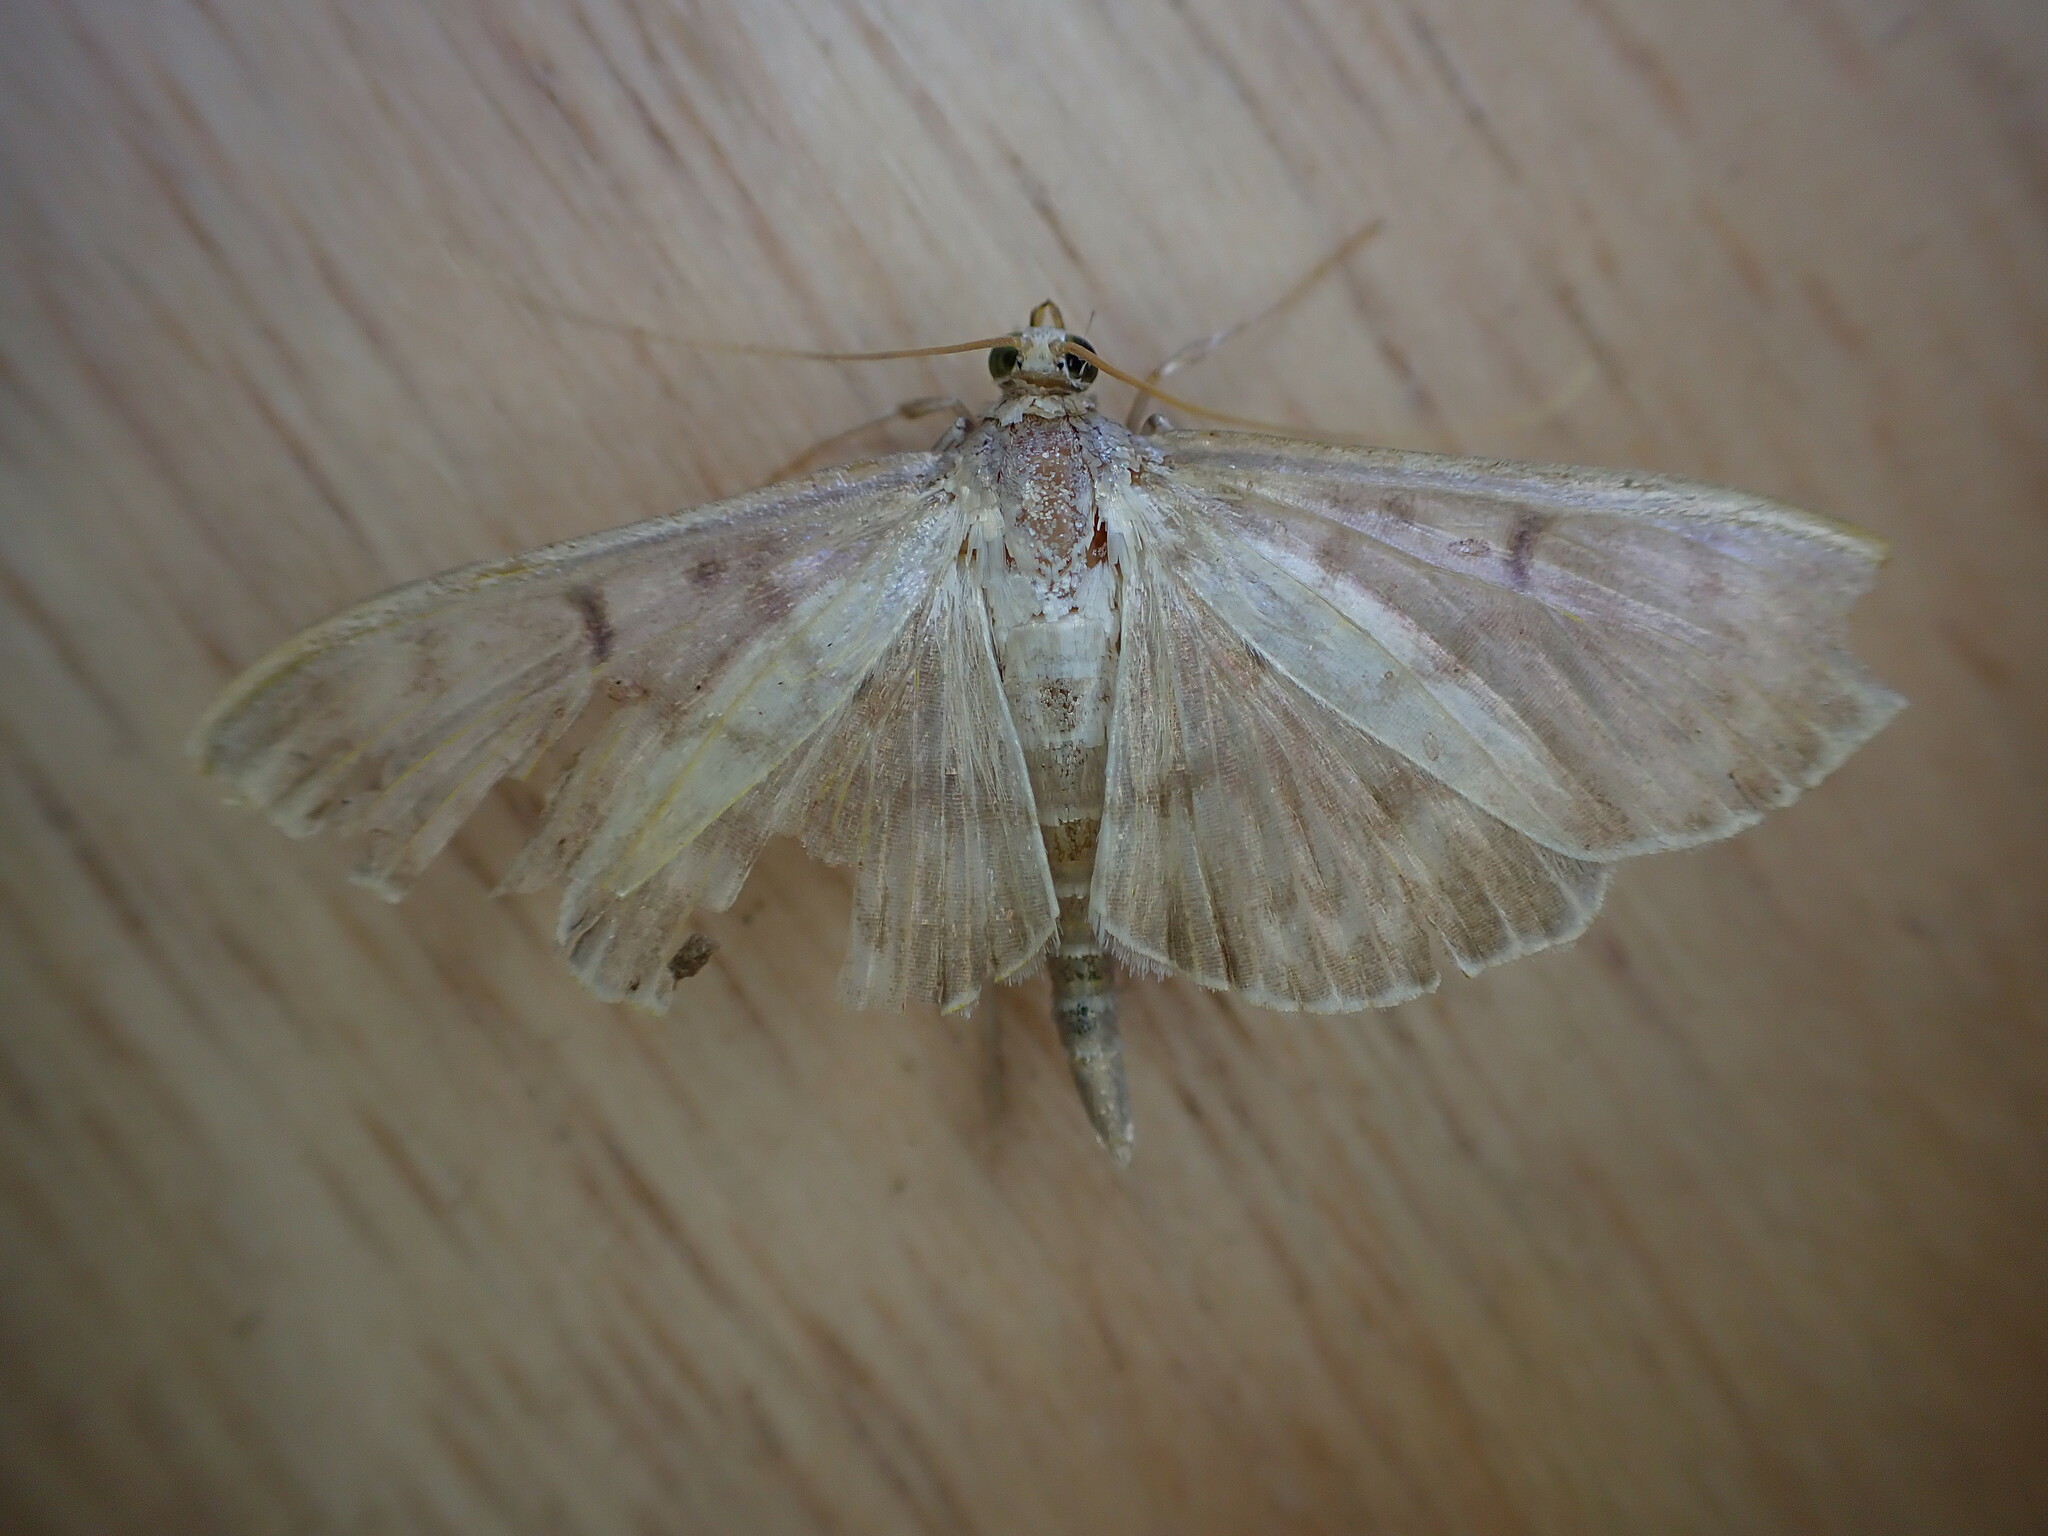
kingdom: Animalia
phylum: Arthropoda
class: Insecta
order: Lepidoptera
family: Crambidae
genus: Patania
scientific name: Patania ruralis
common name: Mother of pearl
